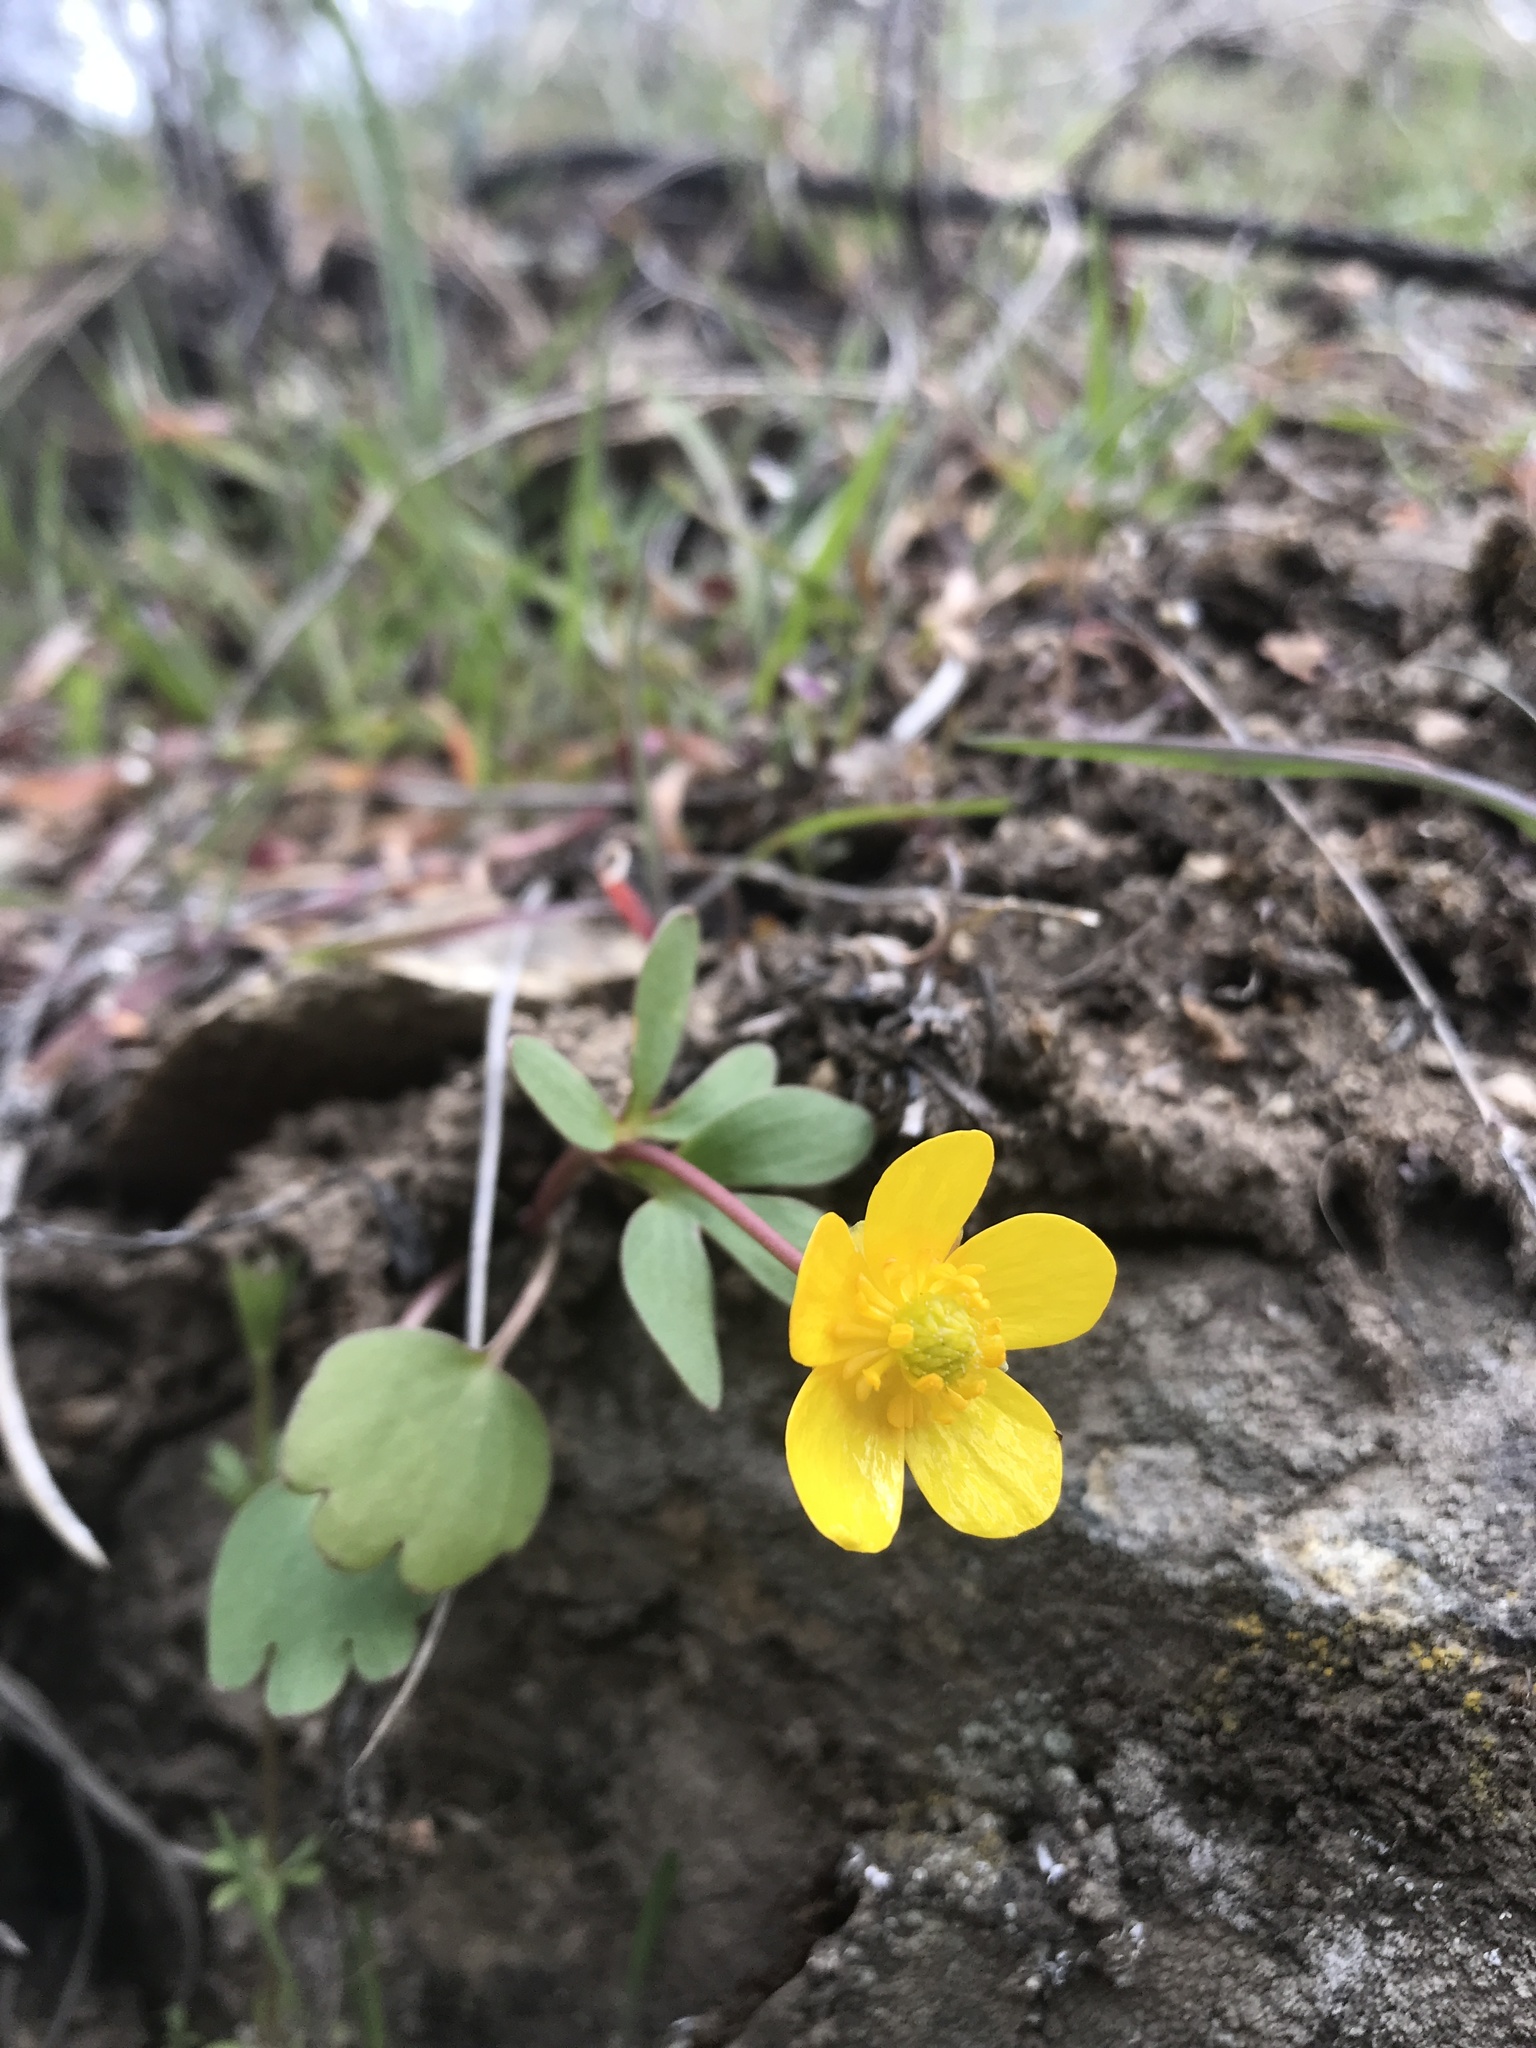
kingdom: Plantae
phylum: Tracheophyta
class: Magnoliopsida
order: Ranunculales
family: Ranunculaceae
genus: Ranunculus
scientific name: Ranunculus glaberrimus
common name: Sagebrush buttercup
